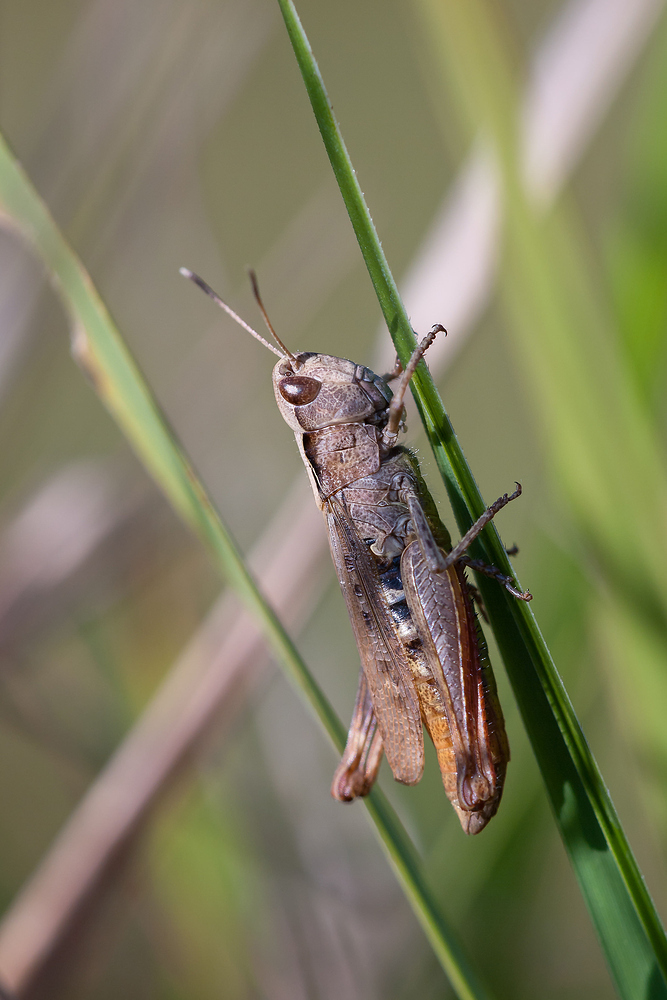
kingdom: Animalia
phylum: Arthropoda
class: Insecta
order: Orthoptera
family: Acrididae
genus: Gomphocerippus
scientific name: Gomphocerippus rufus
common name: Rufous grasshopper
